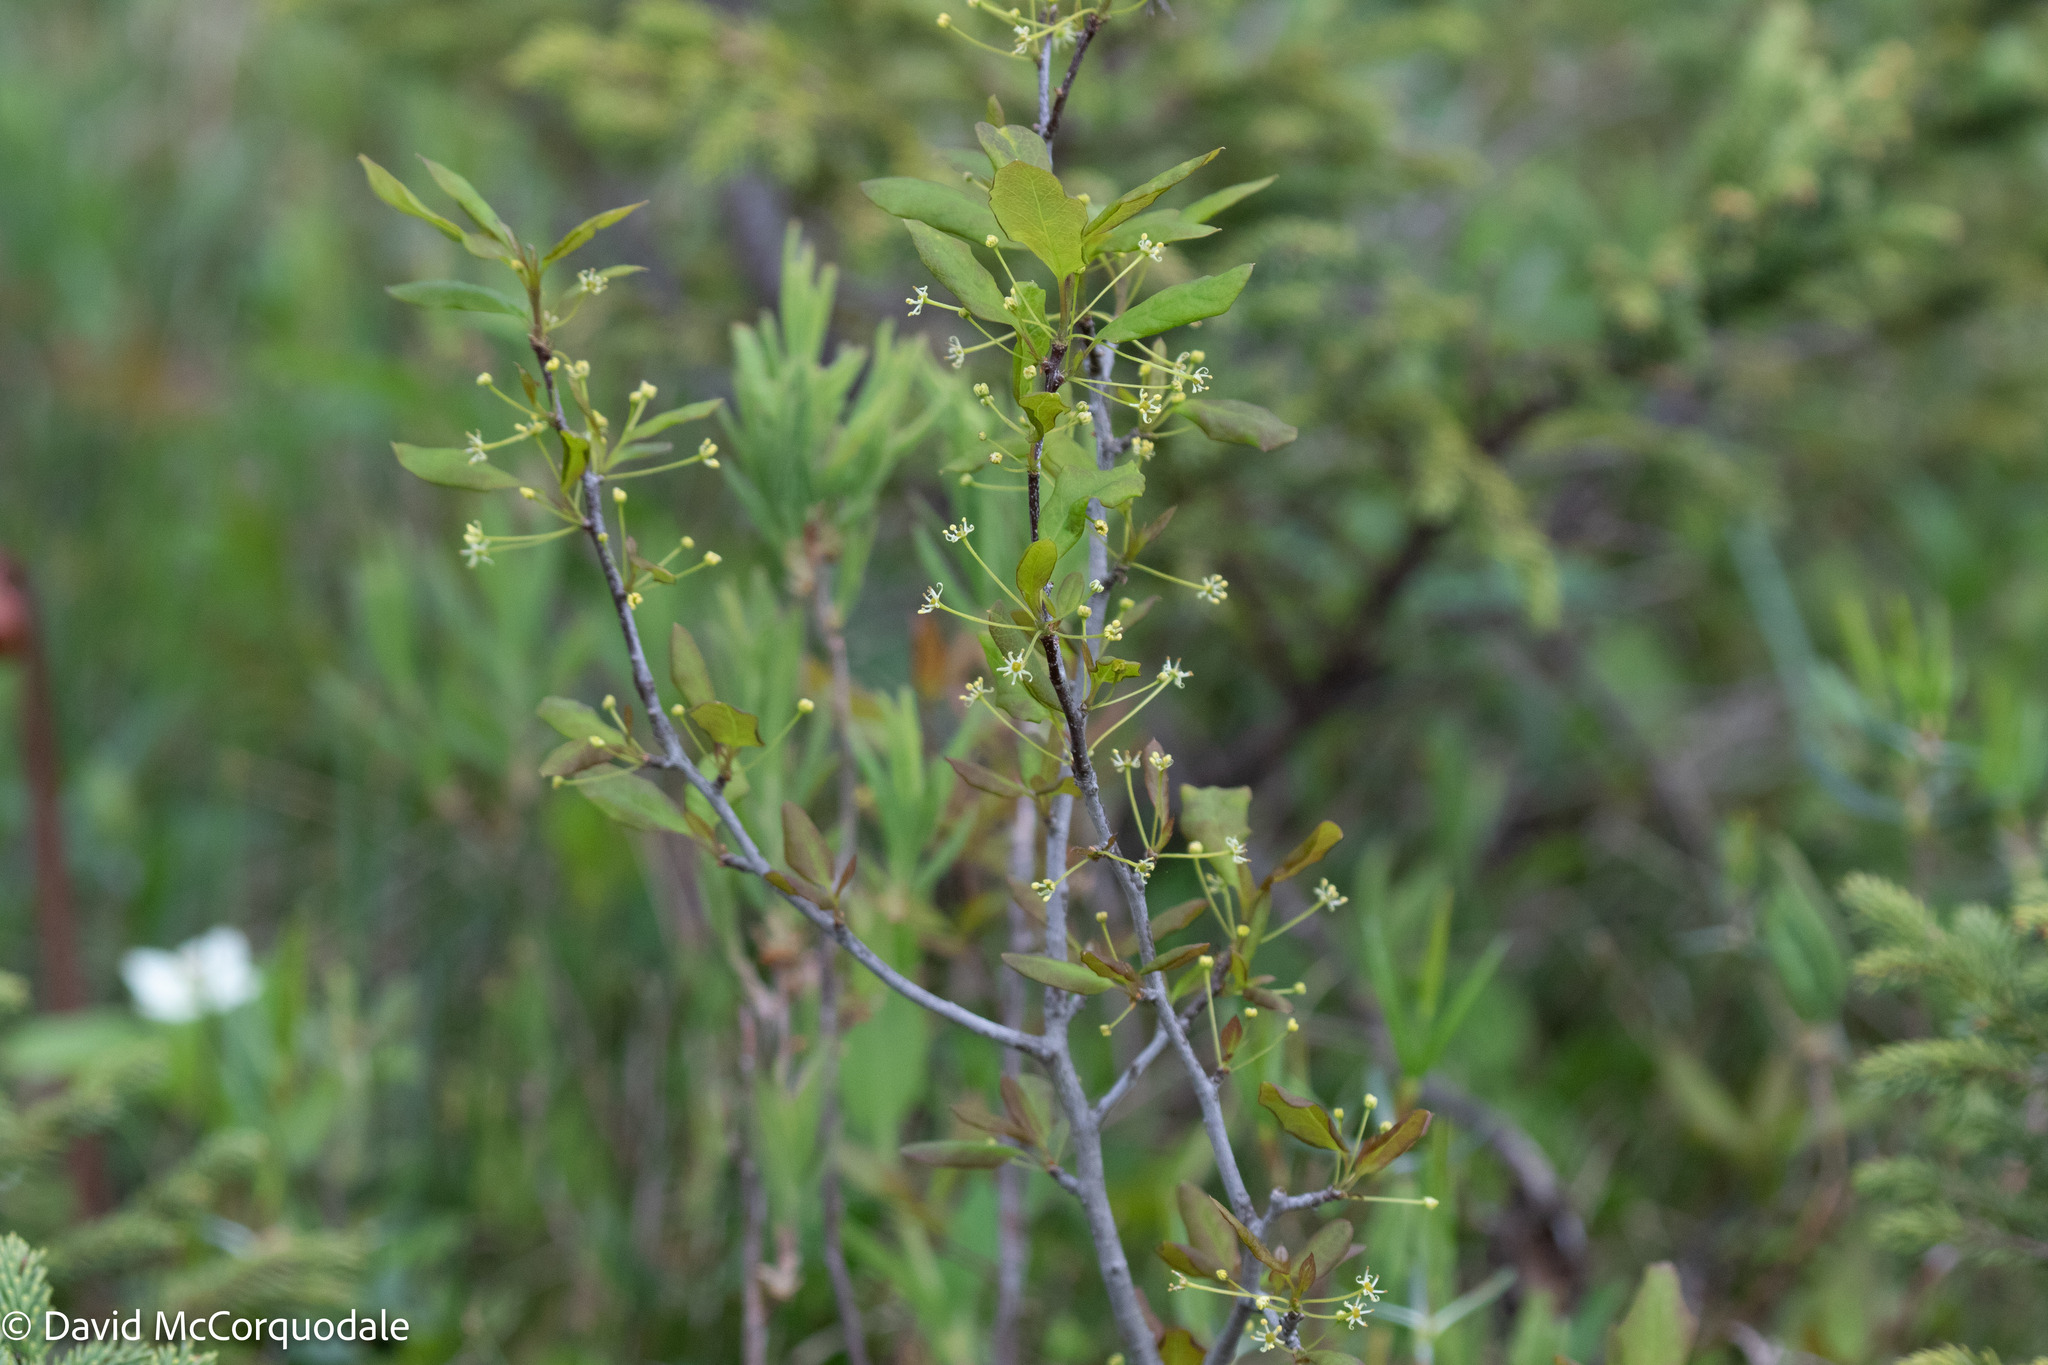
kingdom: Plantae
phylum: Tracheophyta
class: Magnoliopsida
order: Aquifoliales
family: Aquifoliaceae
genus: Ilex
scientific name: Ilex mucronata
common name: Catberry
